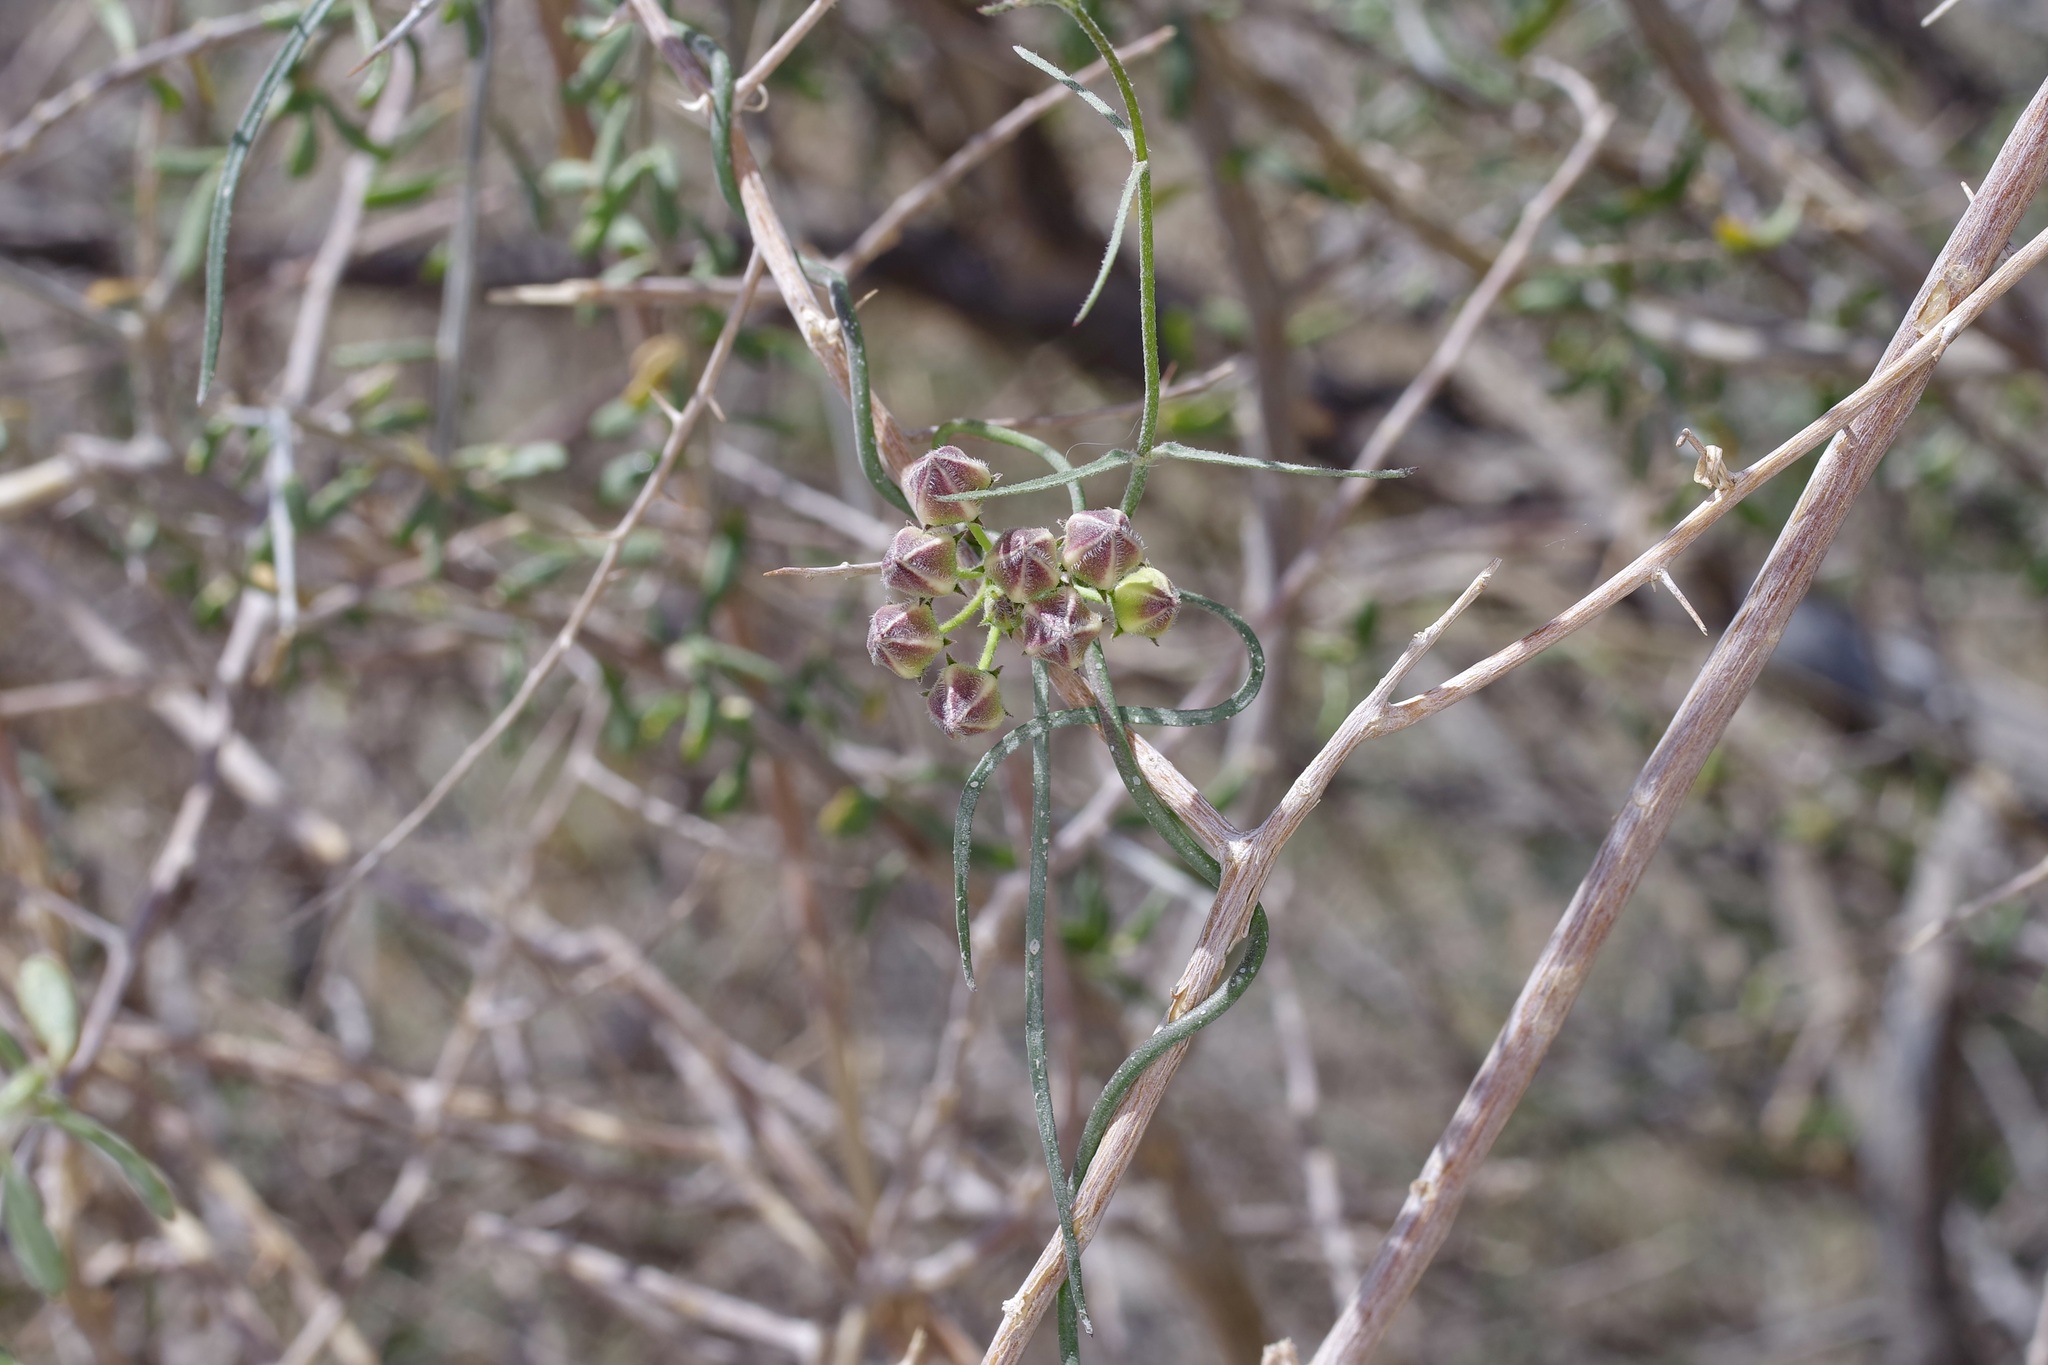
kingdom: Plantae
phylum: Tracheophyta
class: Magnoliopsida
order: Gentianales
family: Apocynaceae
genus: Funastrum
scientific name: Funastrum heterophyllum
